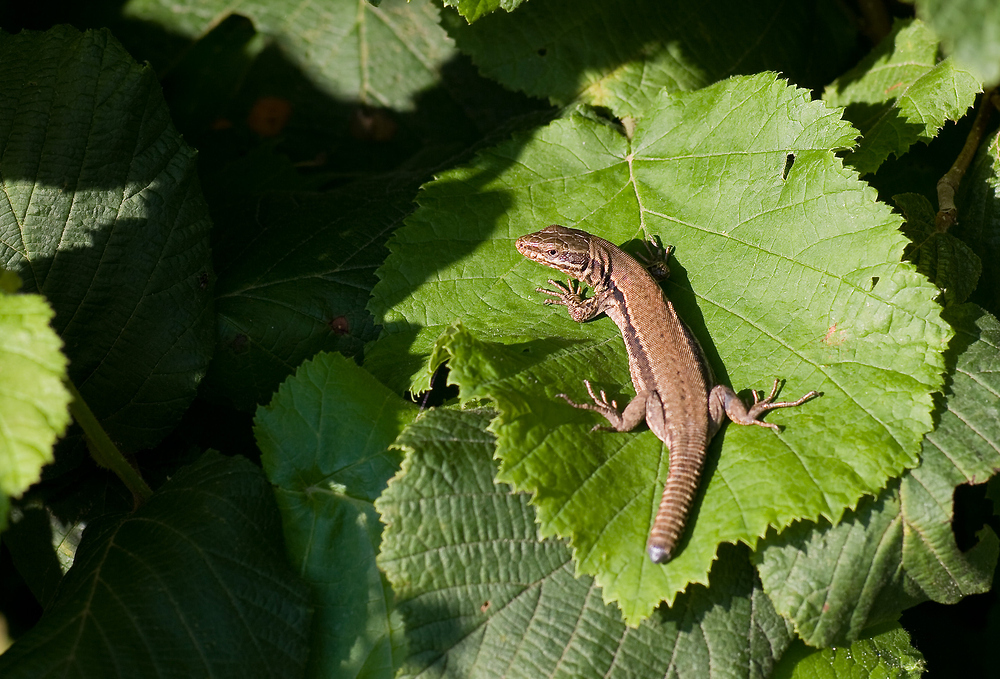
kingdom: Animalia
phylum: Chordata
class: Squamata
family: Lacertidae
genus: Podarcis
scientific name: Podarcis muralis
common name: Common wall lizard
